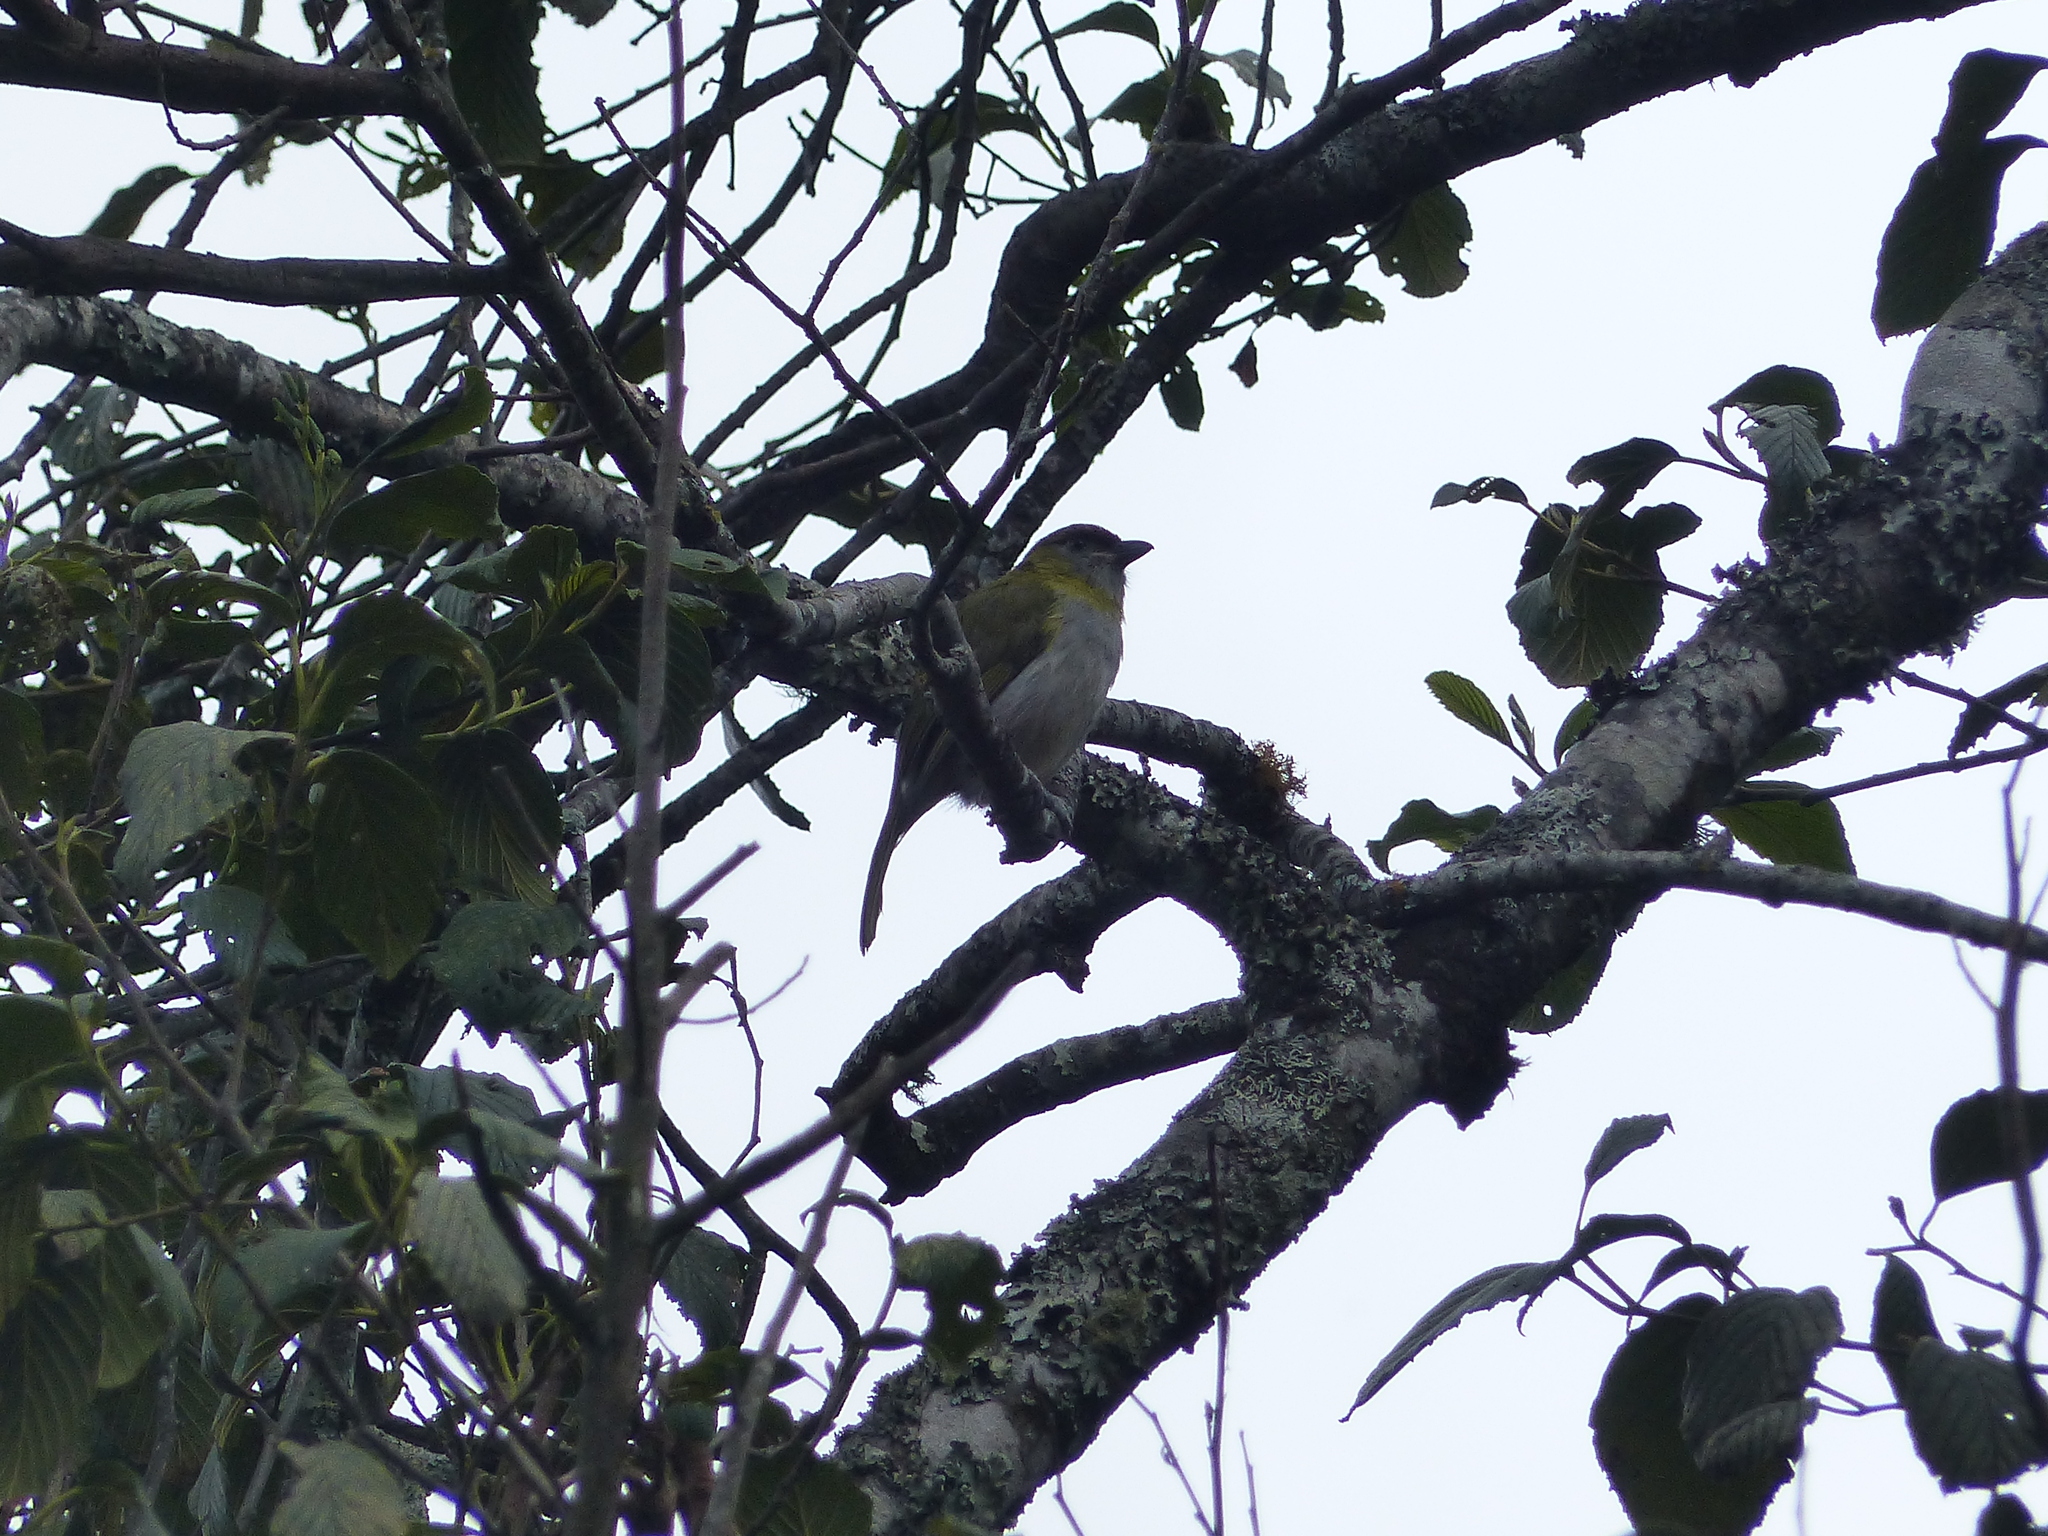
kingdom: Animalia
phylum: Chordata
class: Aves
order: Passeriformes
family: Vireonidae
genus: Cyclarhis
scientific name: Cyclarhis nigrirostris
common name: Black-billed peppershrike
